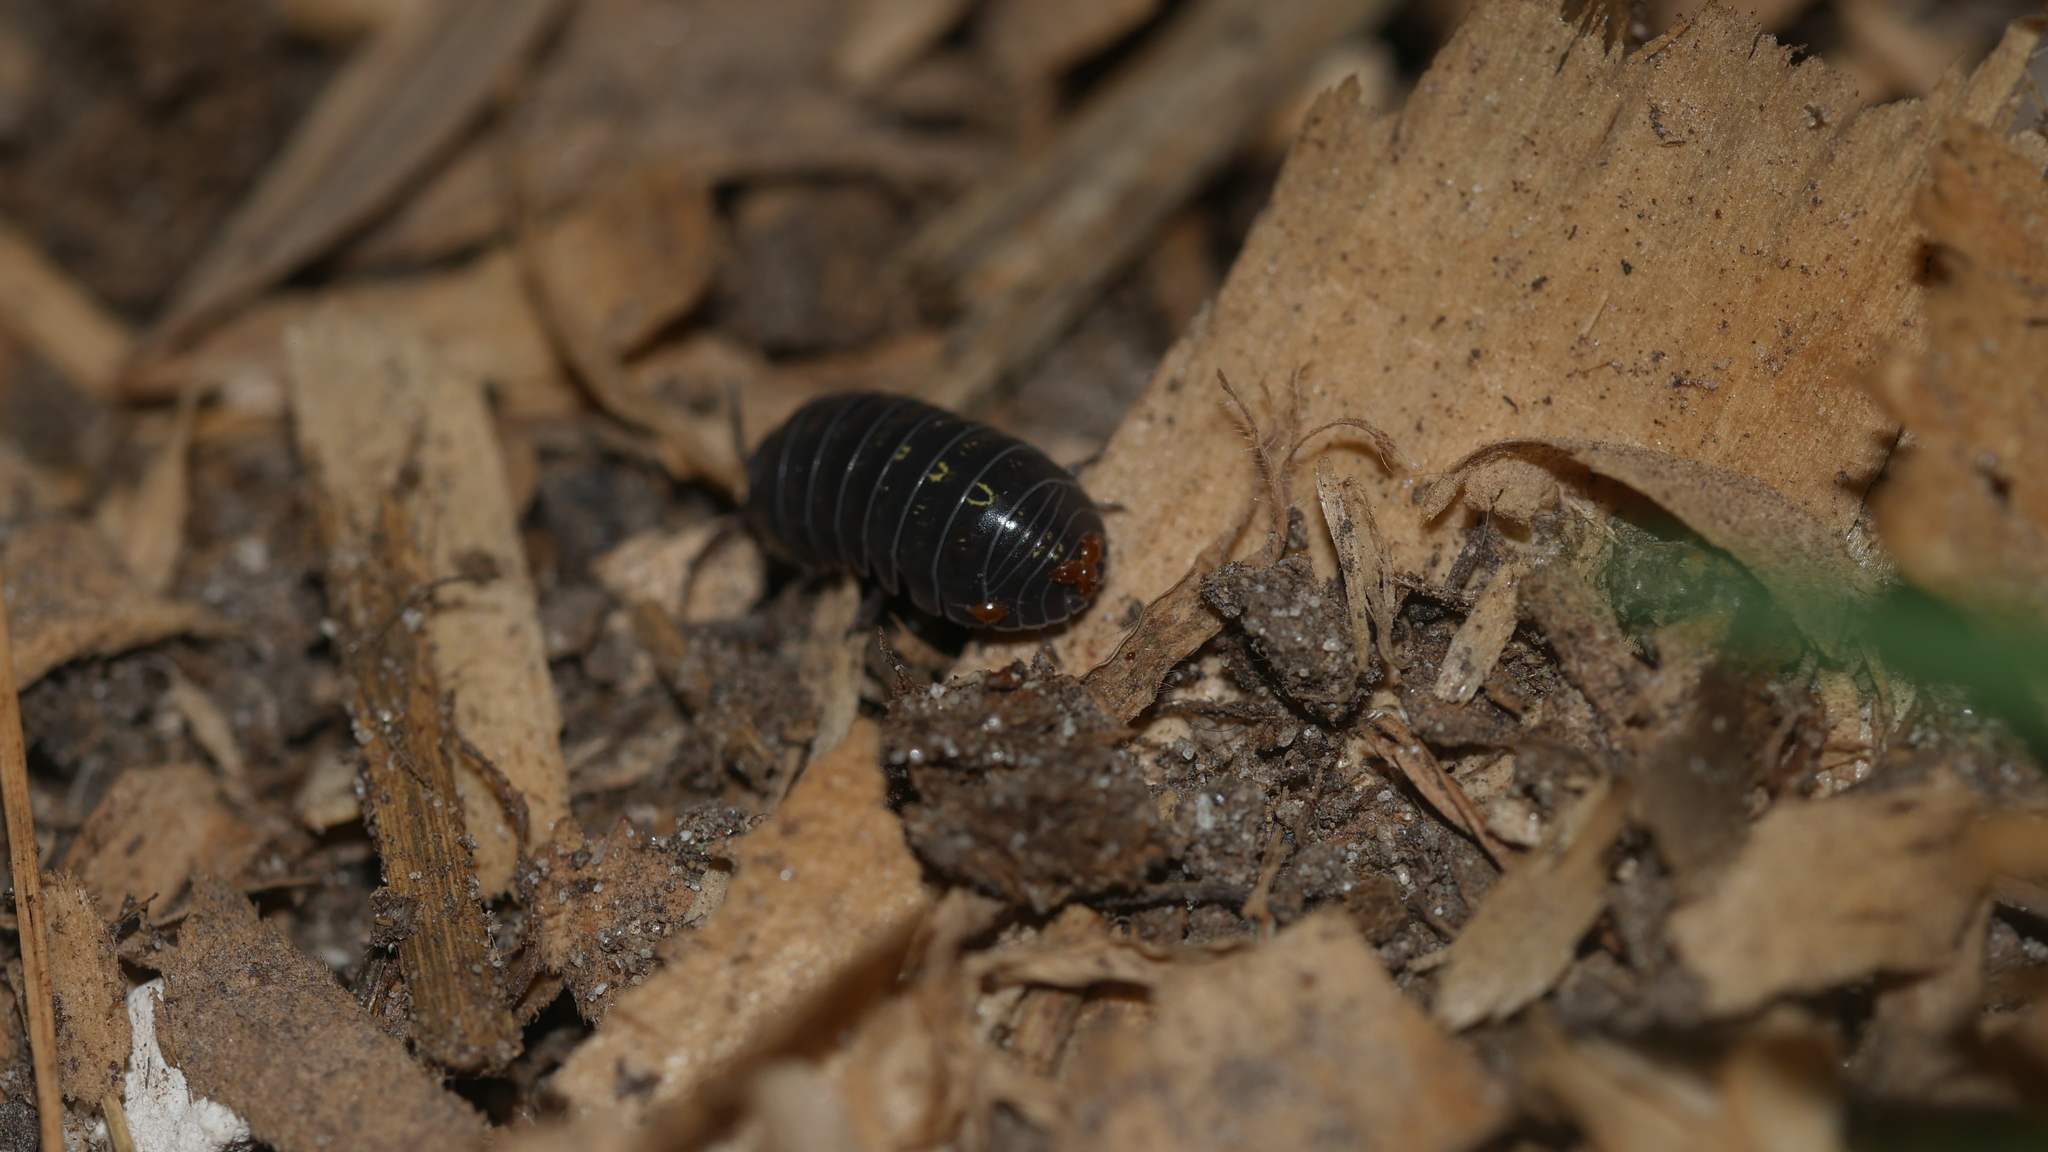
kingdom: Animalia
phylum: Arthropoda
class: Malacostraca
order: Isopoda
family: Armadillidiidae
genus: Armadillidium
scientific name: Armadillidium vulgare
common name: Common pill woodlouse
